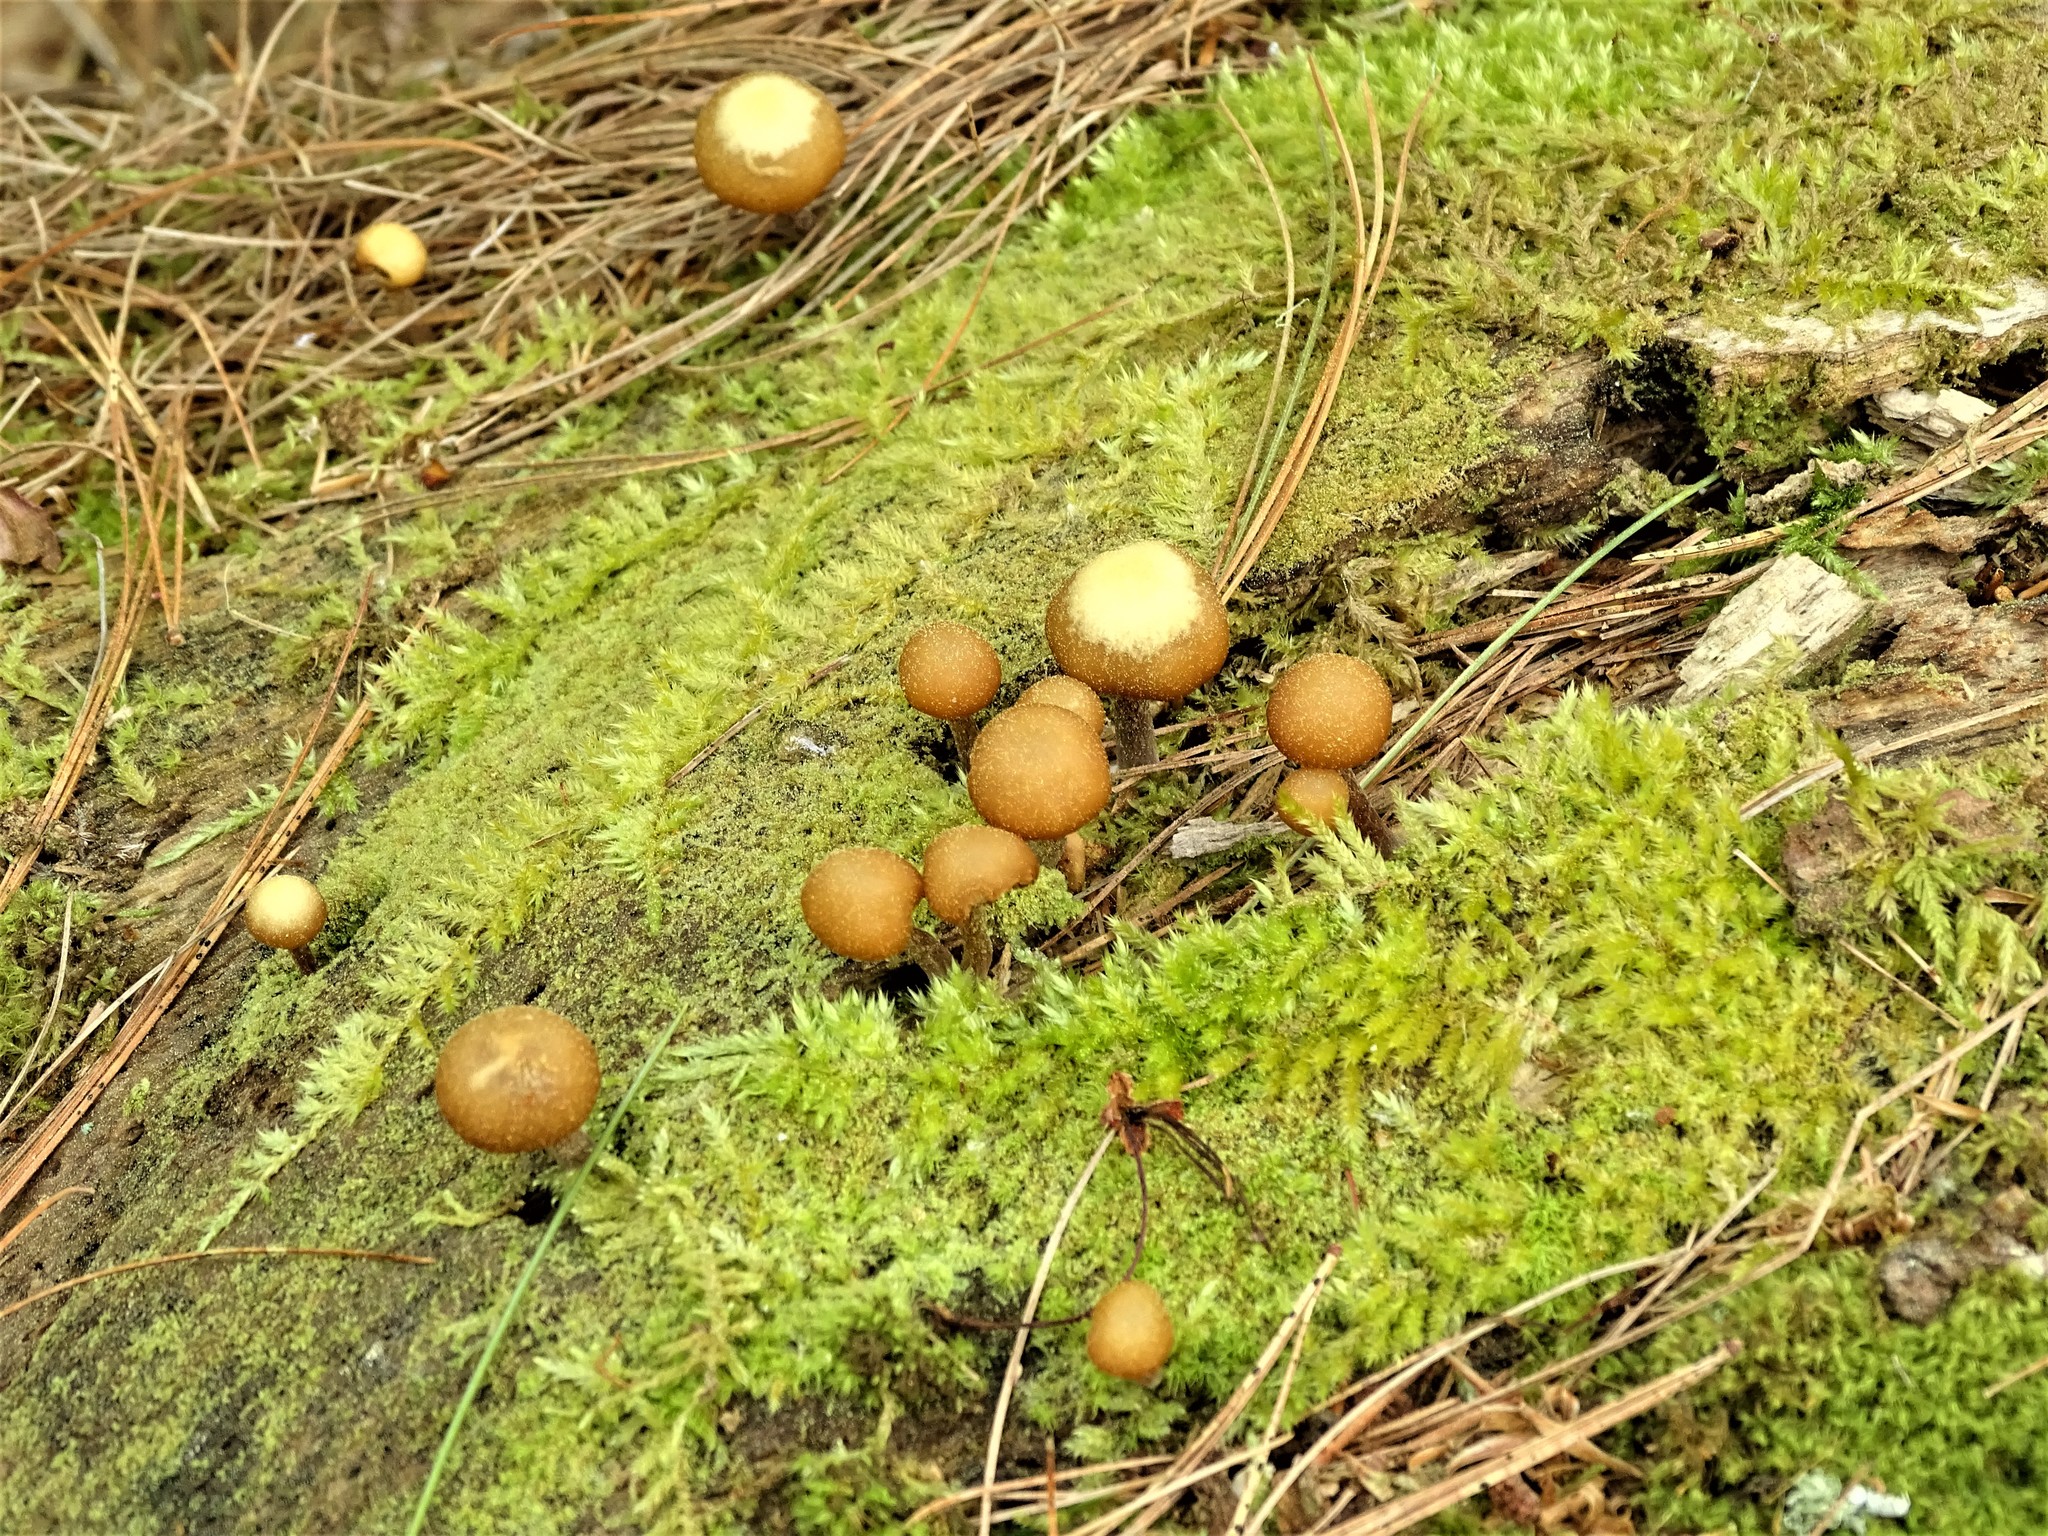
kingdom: Fungi
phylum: Basidiomycota
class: Agaricomycetes
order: Agaricales
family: Hymenogastraceae
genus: Galerina
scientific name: Galerina marginata
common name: Funeral bell
